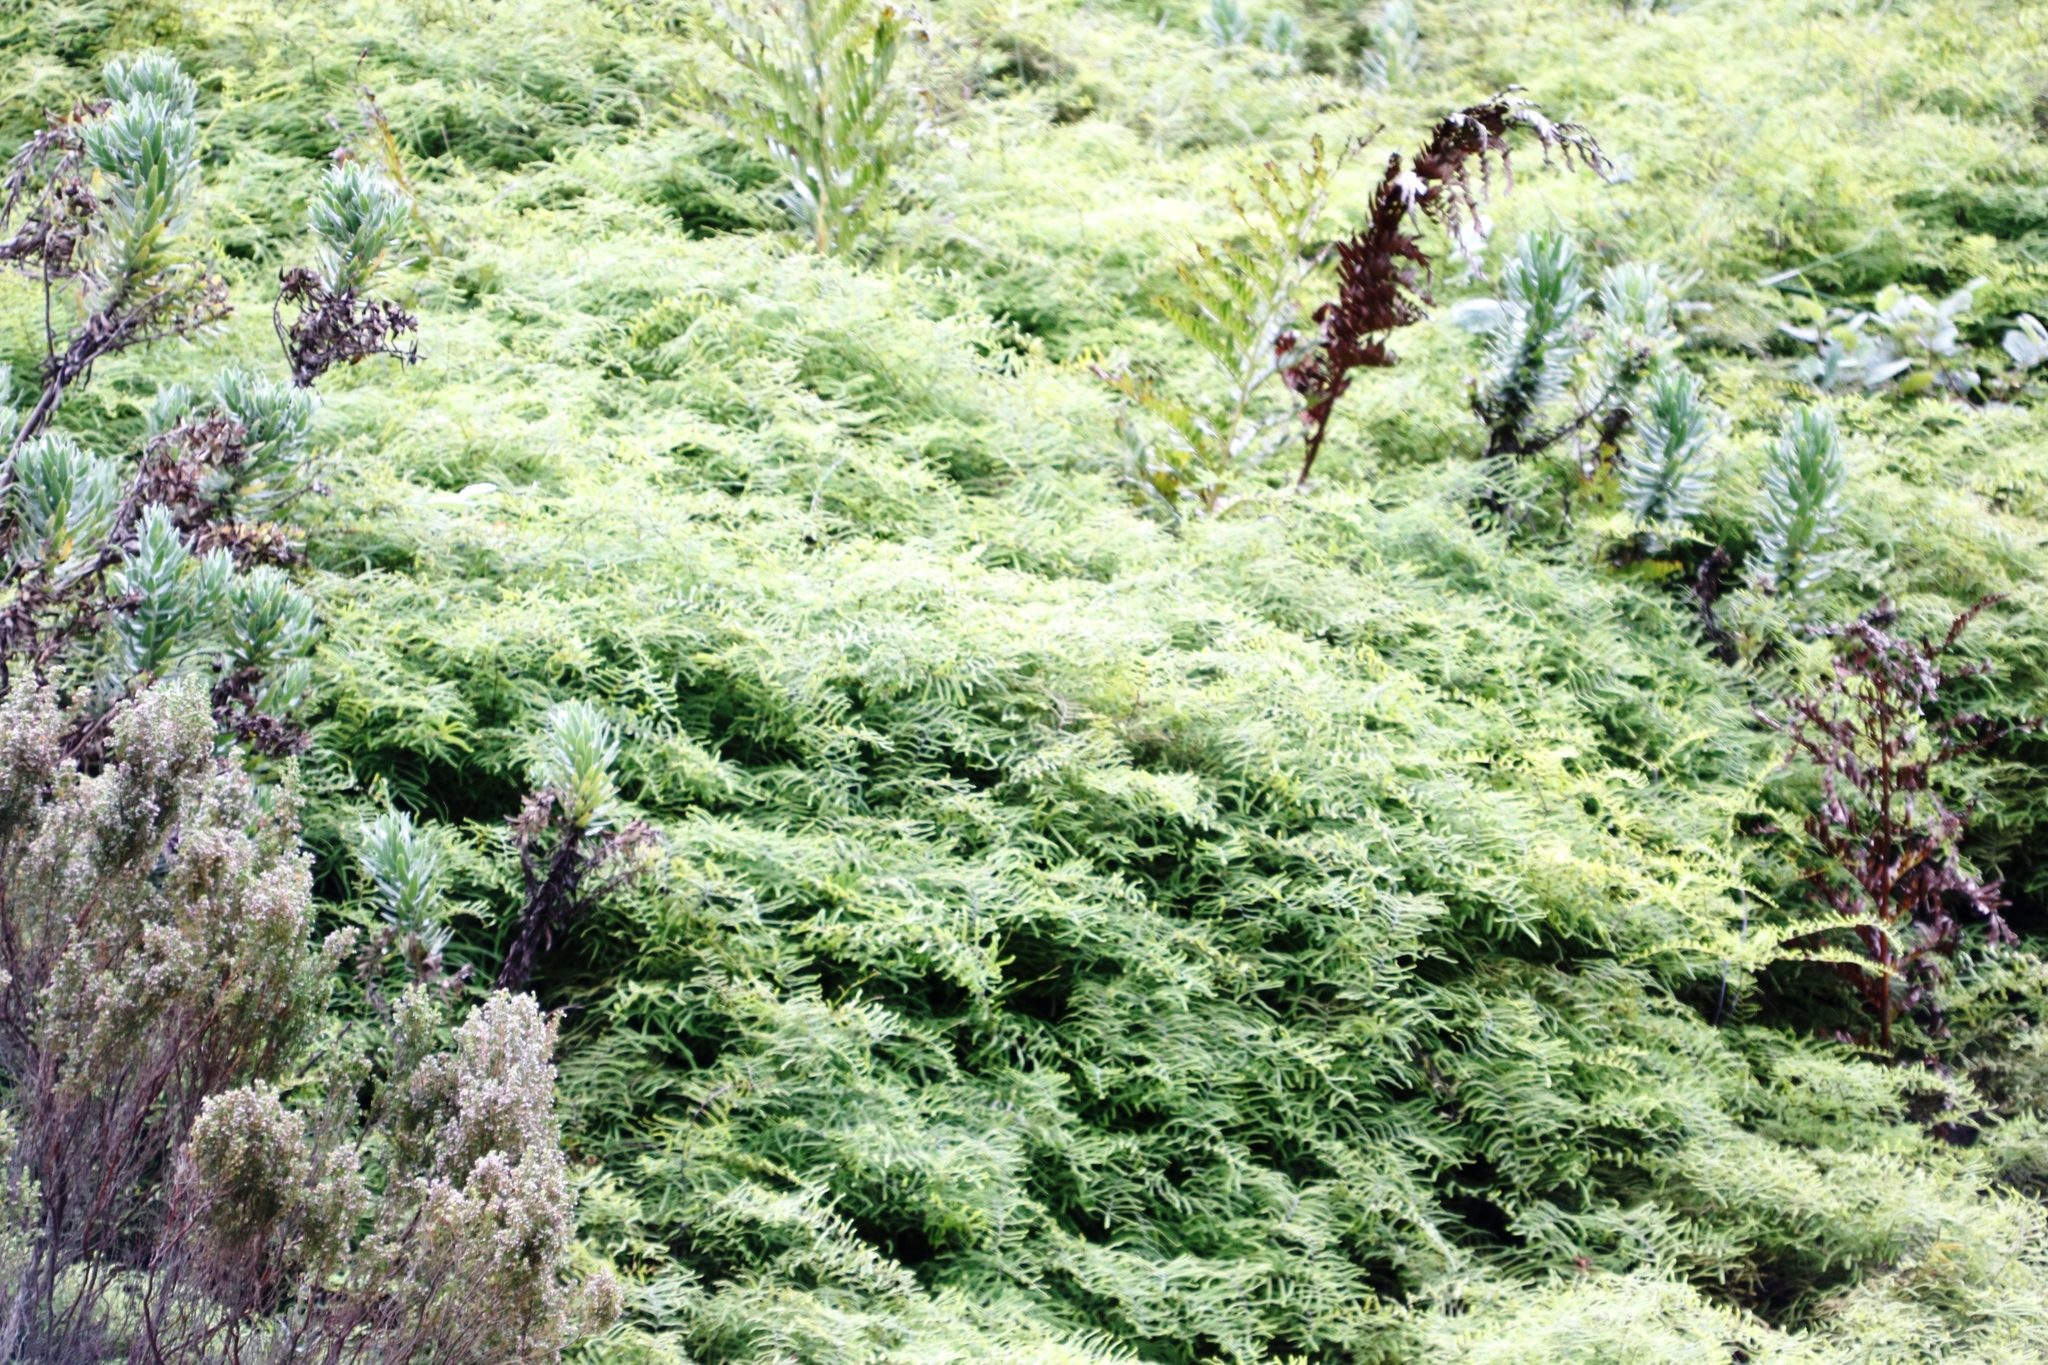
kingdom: Plantae
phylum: Tracheophyta
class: Polypodiopsida
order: Gleicheniales
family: Gleicheniaceae
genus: Gleichenia
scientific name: Gleichenia polypodioides
